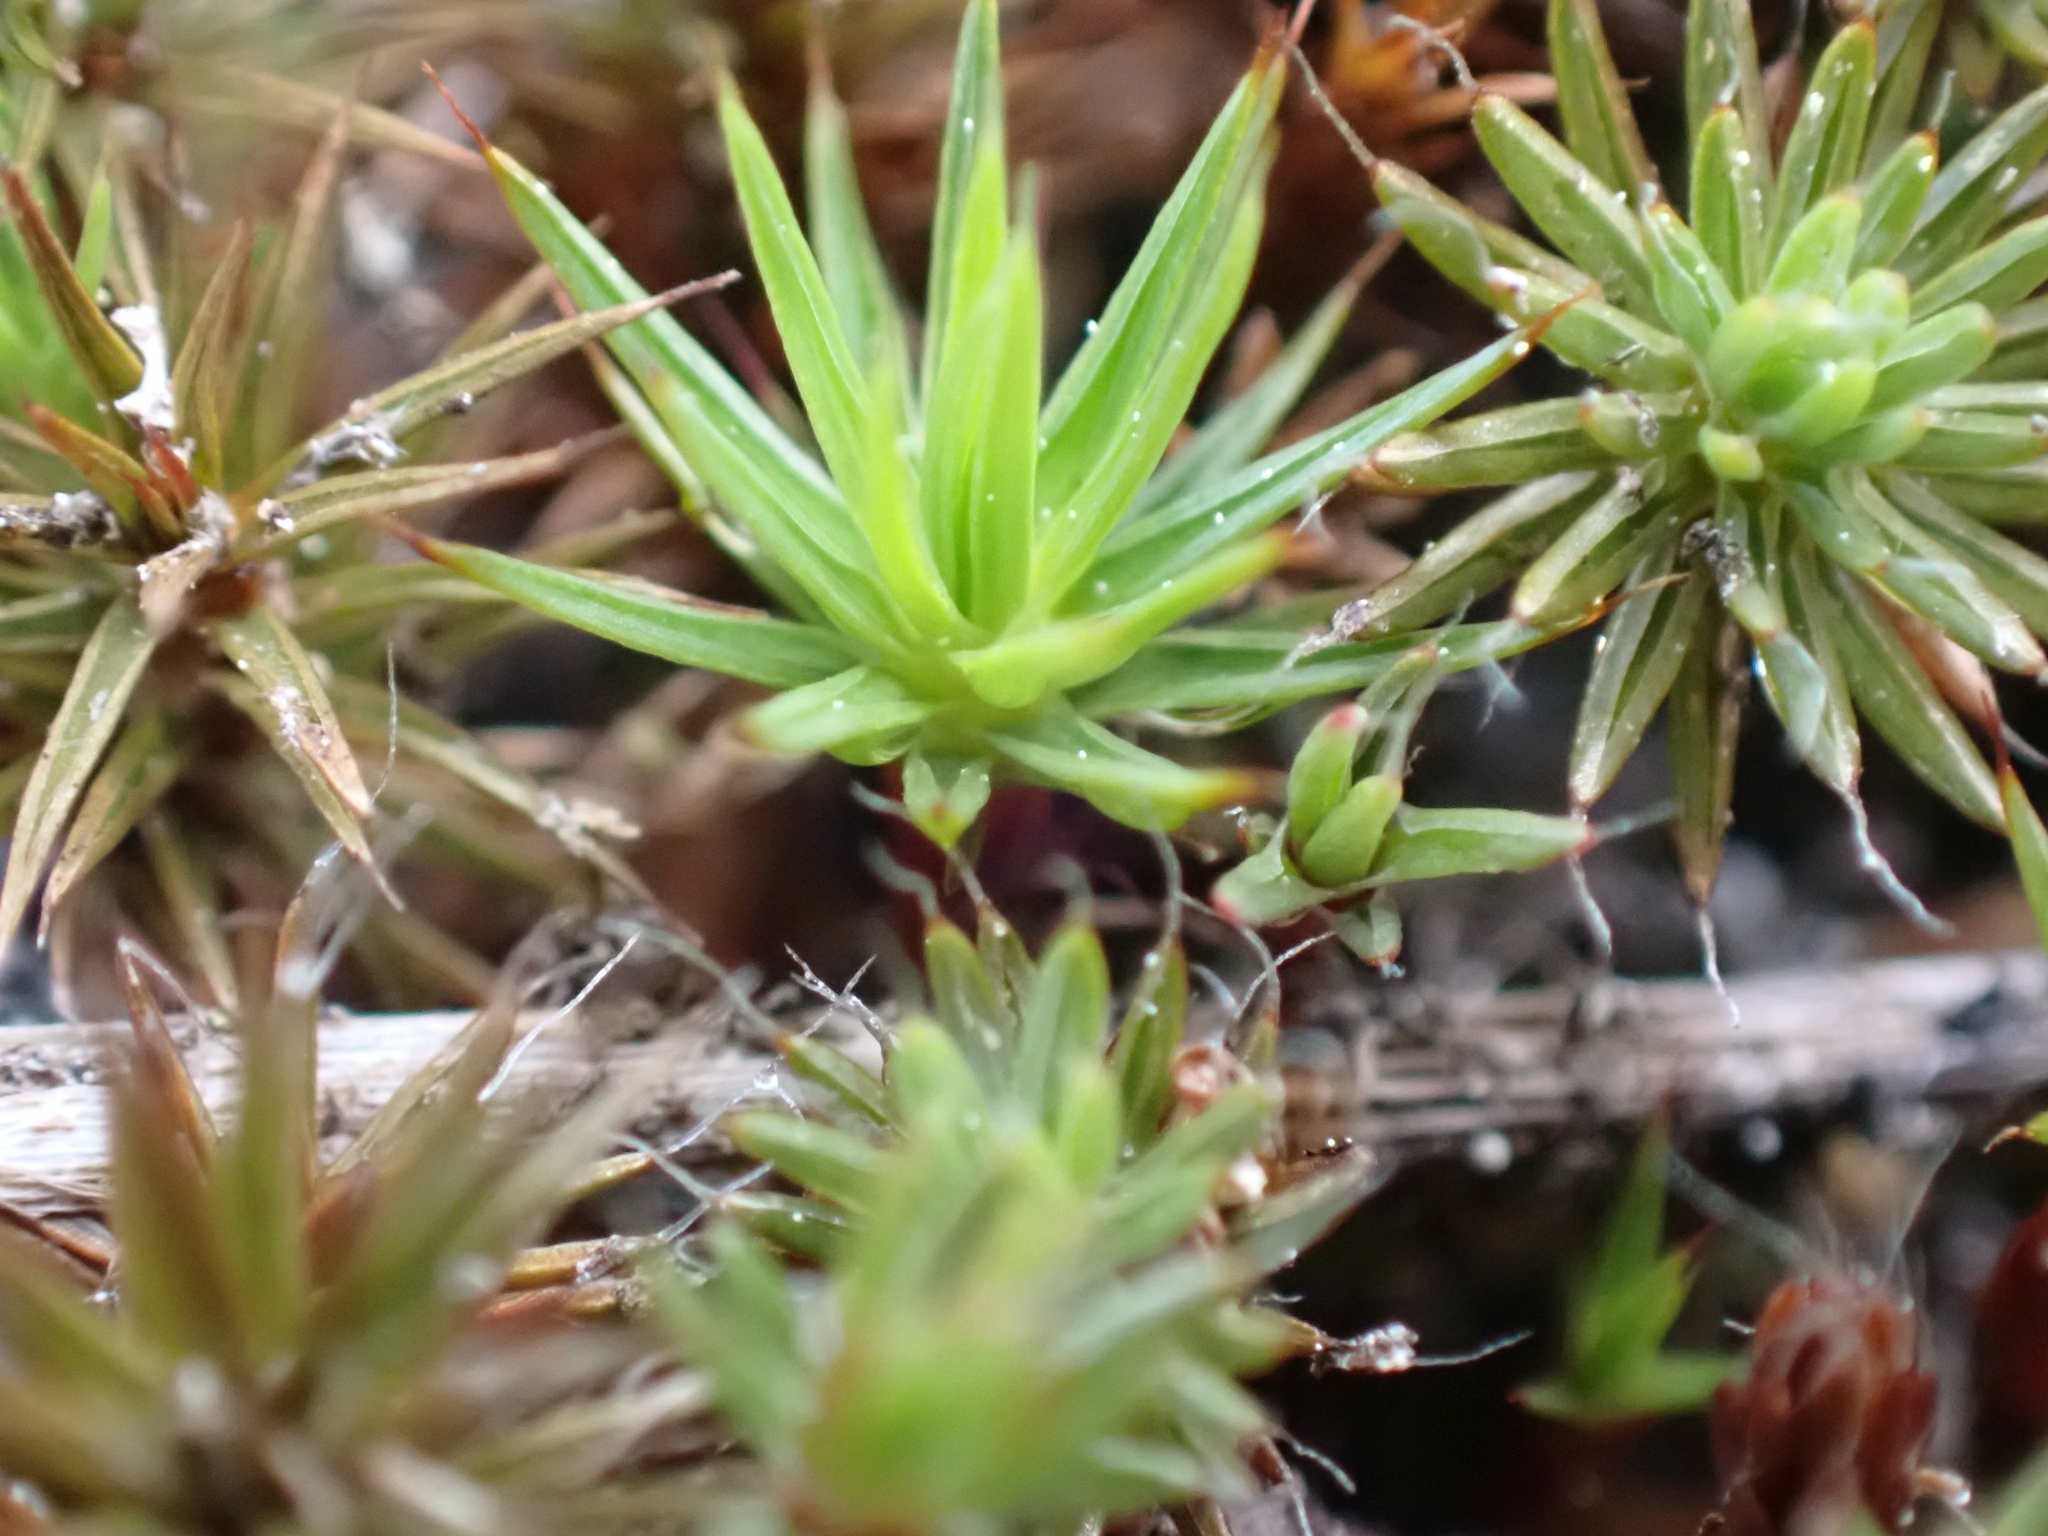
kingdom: Plantae
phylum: Bryophyta
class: Polytrichopsida
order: Polytrichales
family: Polytrichaceae
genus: Polytrichum
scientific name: Polytrichum juniperinum
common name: Juniper haircap moss
